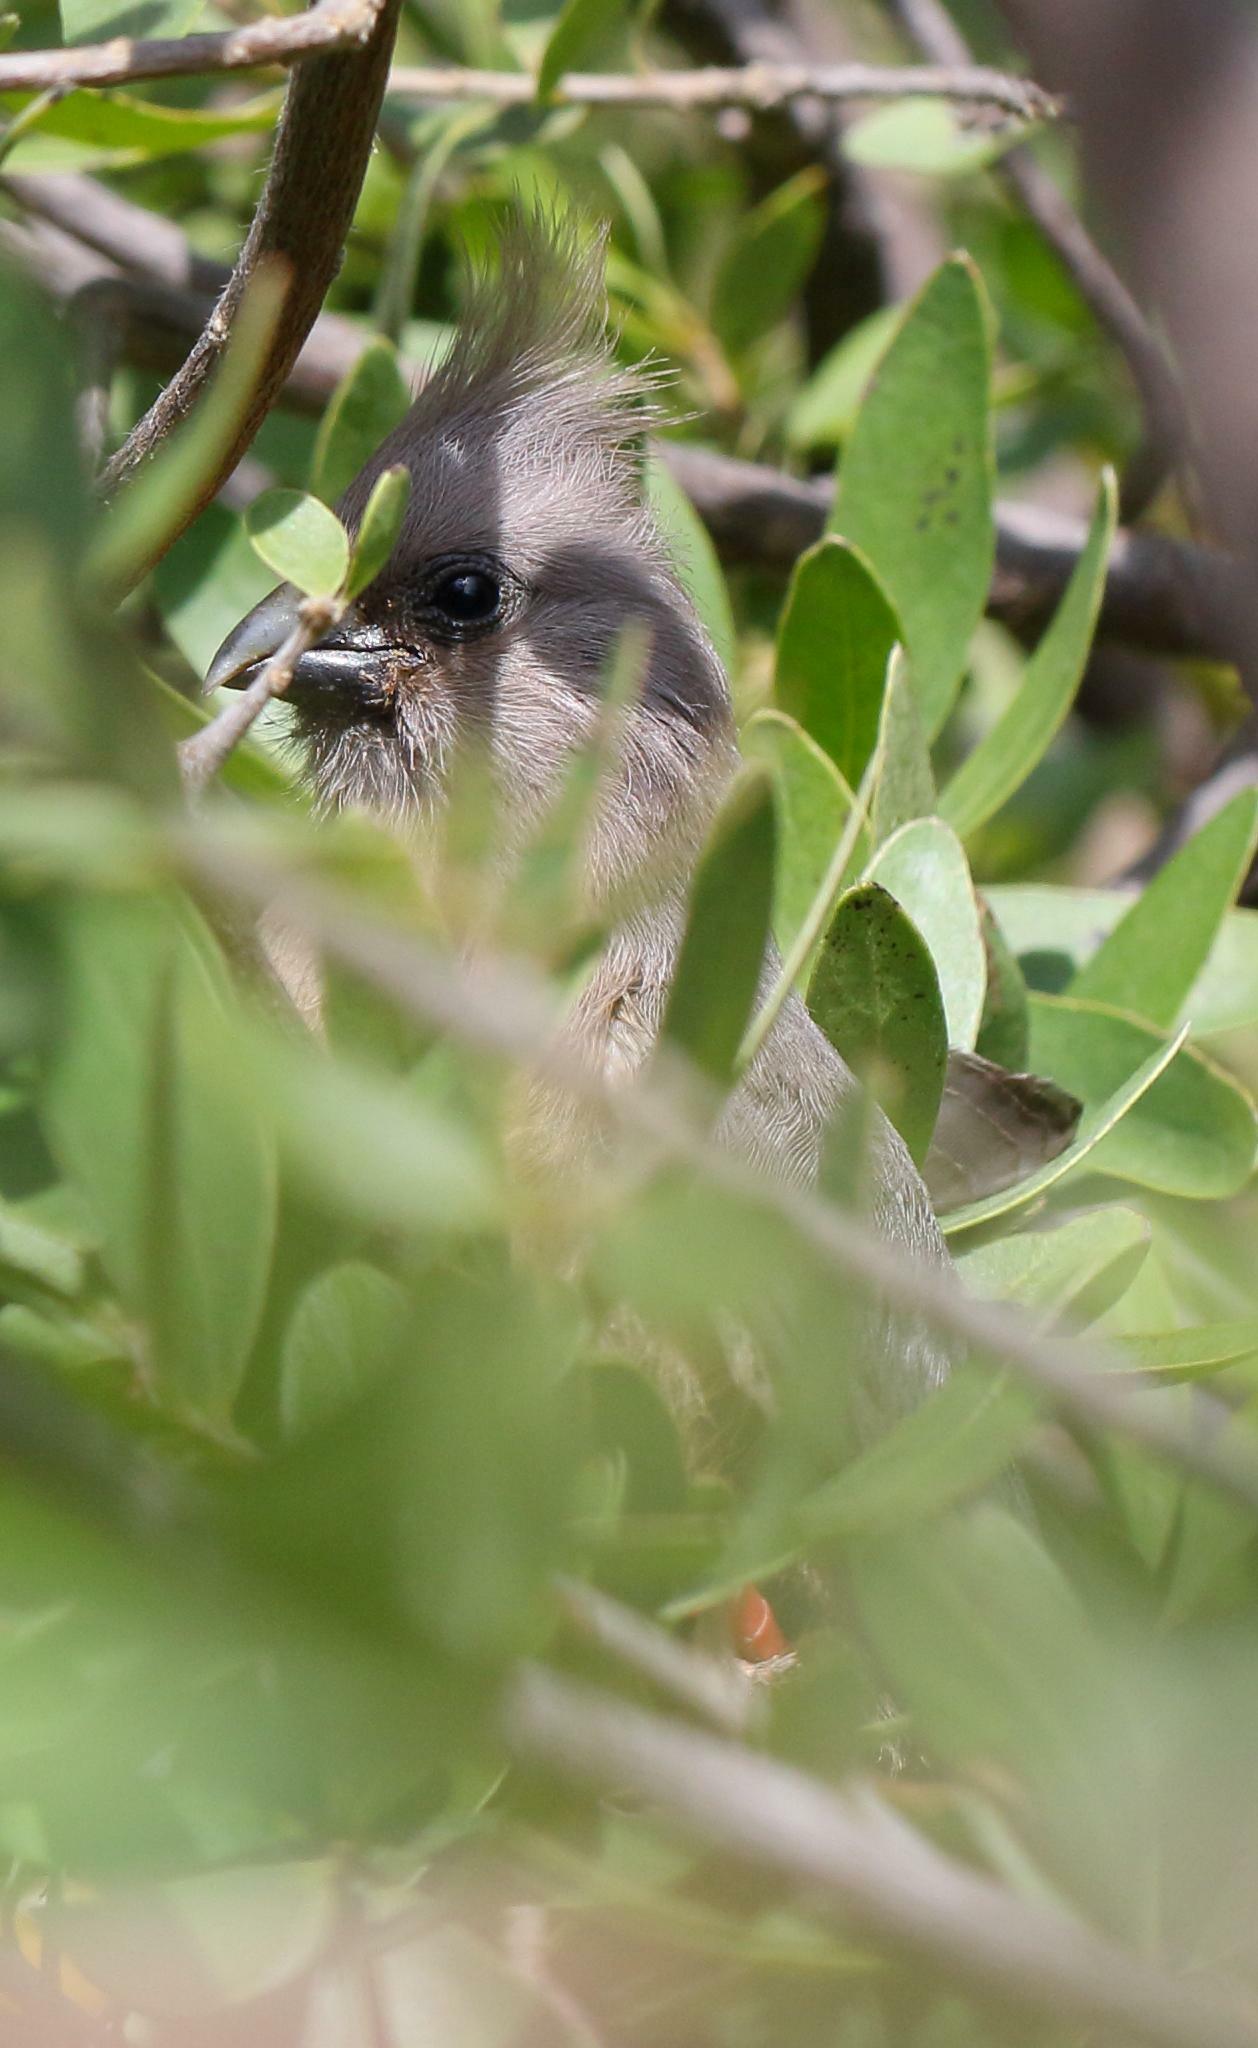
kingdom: Animalia
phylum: Chordata
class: Aves
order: Coliiformes
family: Coliidae
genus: Colius
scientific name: Colius colius
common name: White-backed mousebird
